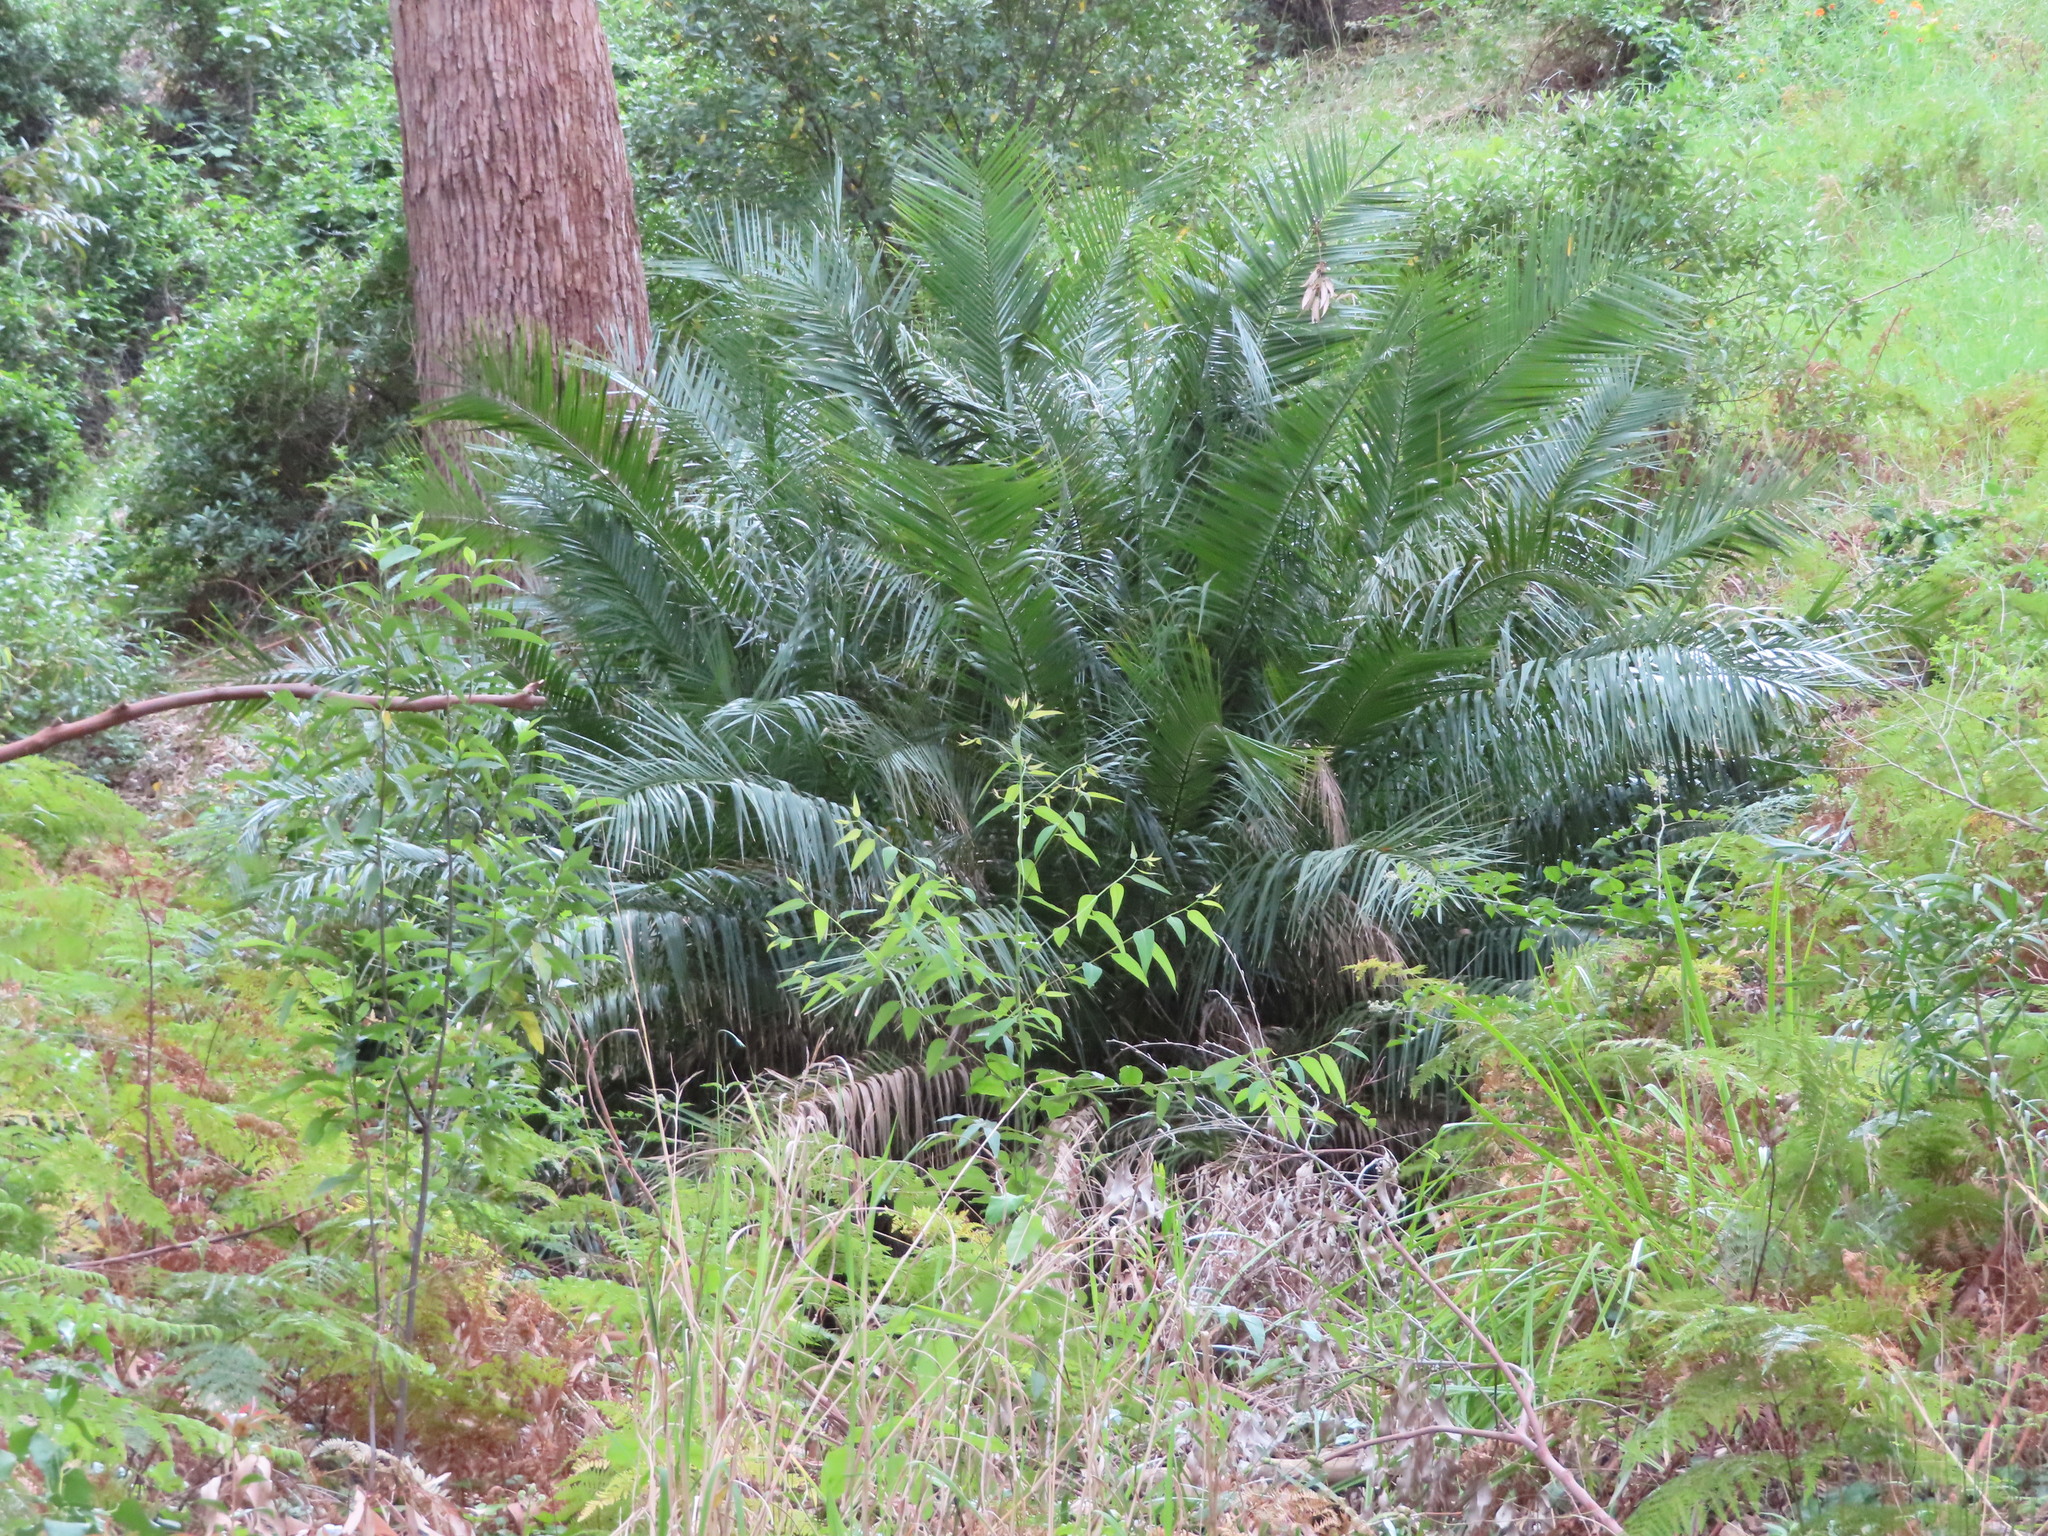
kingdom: Plantae
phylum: Tracheophyta
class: Liliopsida
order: Arecales
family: Arecaceae
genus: Phoenix
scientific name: Phoenix reclinata
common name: Senegal date palm
